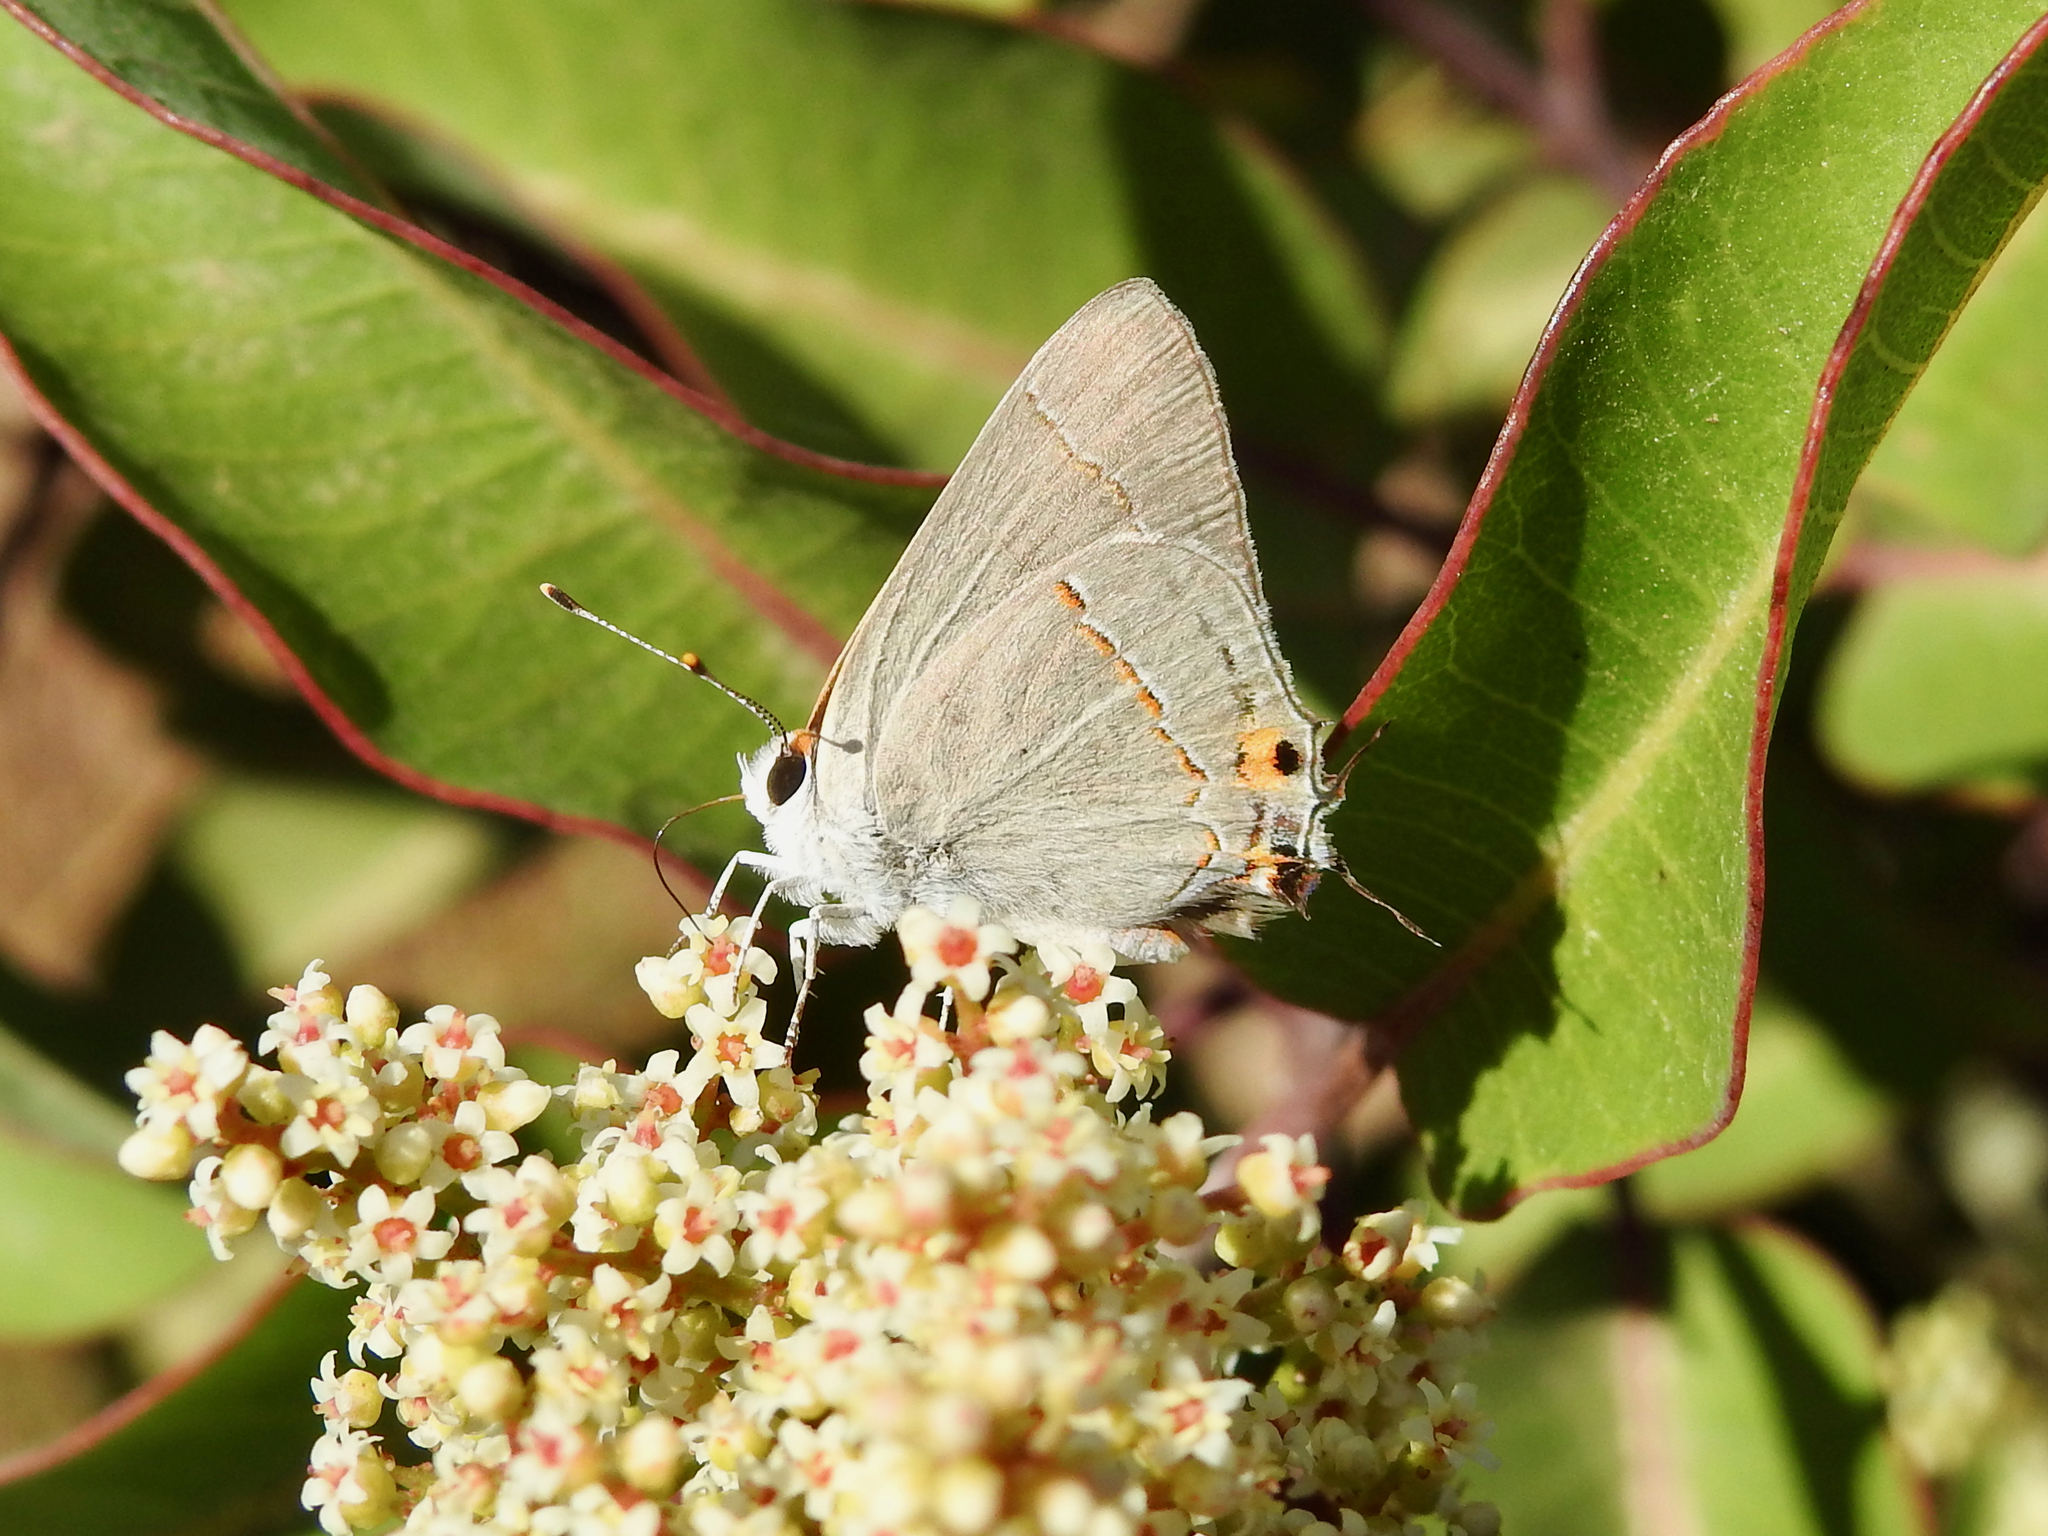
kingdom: Animalia
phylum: Arthropoda
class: Insecta
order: Lepidoptera
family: Lycaenidae
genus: Strymon
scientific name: Strymon melinus
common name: Gray hairstreak
